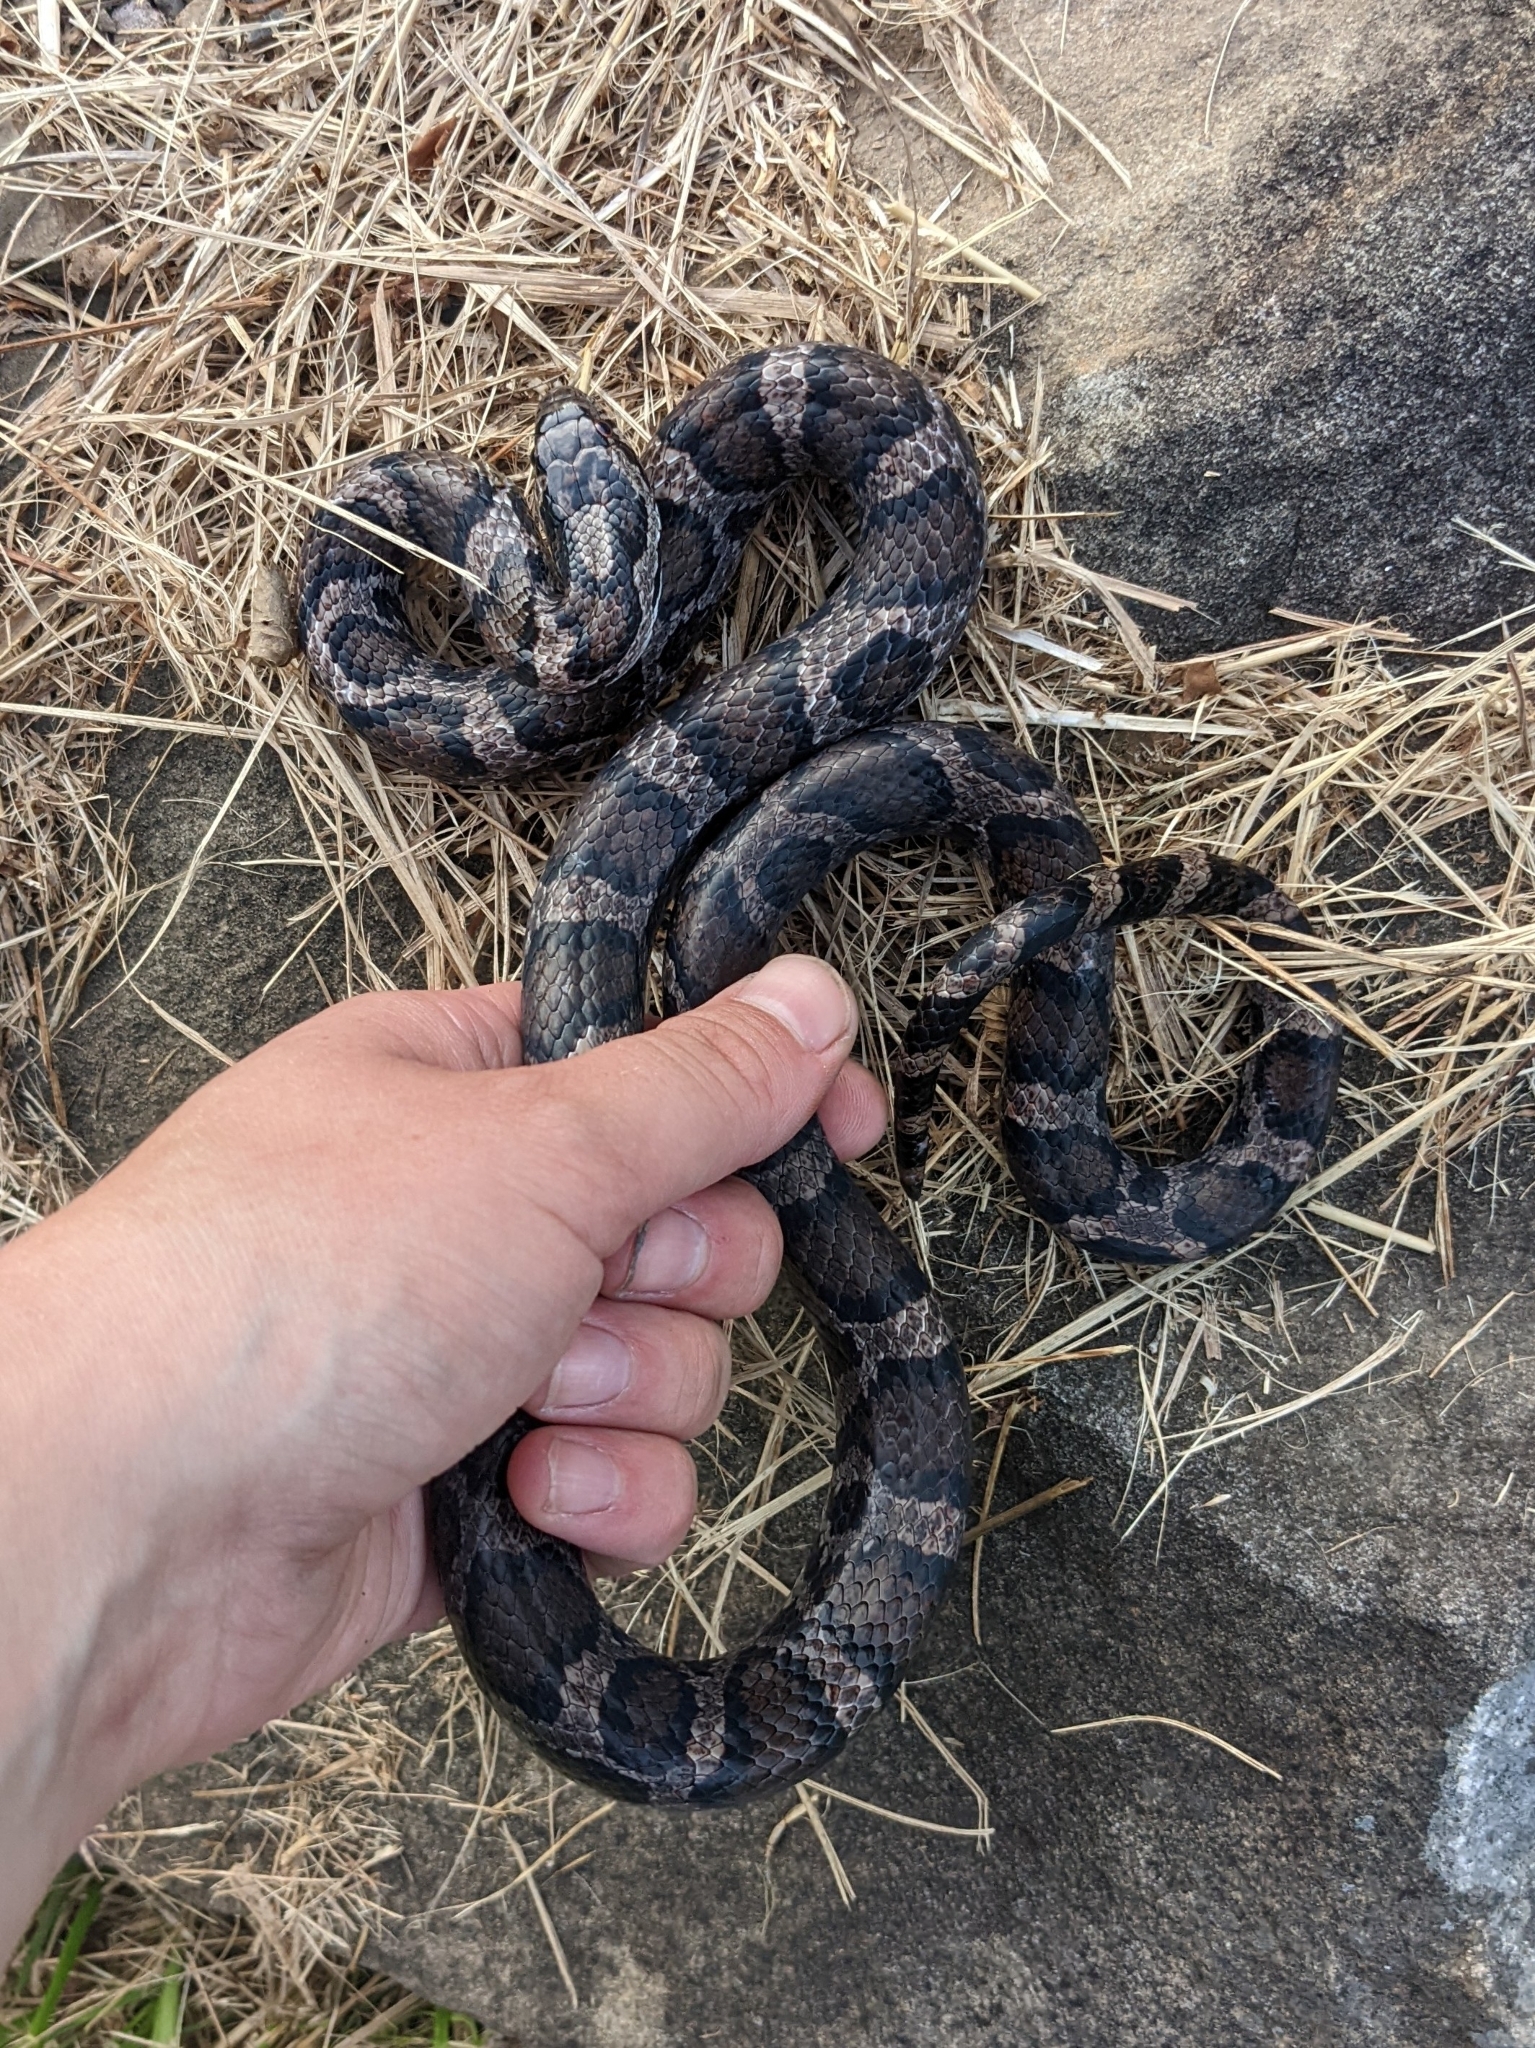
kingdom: Animalia
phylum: Chordata
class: Squamata
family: Colubridae
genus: Lampropeltis
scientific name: Lampropeltis triangulum
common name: Eastern milksnake
